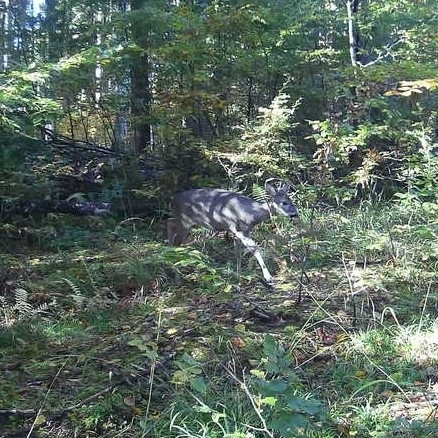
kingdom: Animalia
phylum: Chordata
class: Mammalia
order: Artiodactyla
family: Cervidae
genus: Capreolus
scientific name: Capreolus capreolus
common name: Western roe deer
